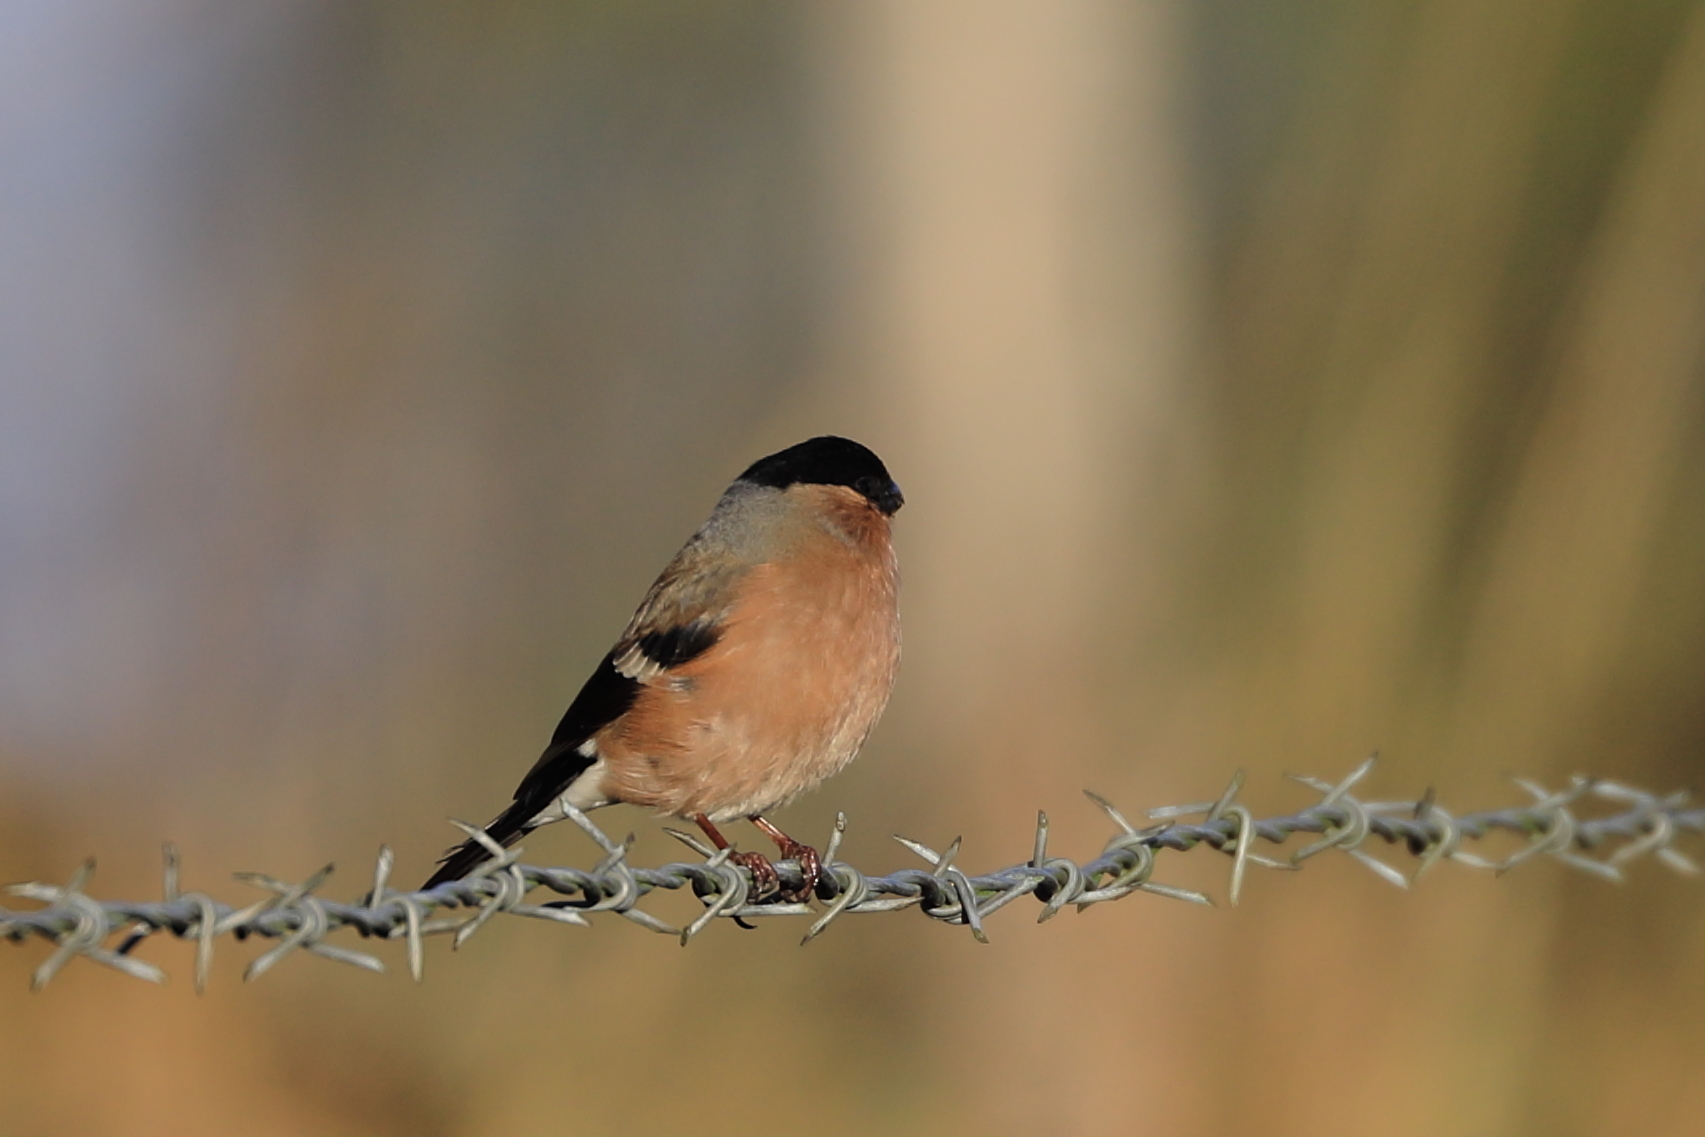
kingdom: Animalia
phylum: Chordata
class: Aves
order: Passeriformes
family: Fringillidae
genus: Pyrrhula
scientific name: Pyrrhula pyrrhula
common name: Eurasian bullfinch
